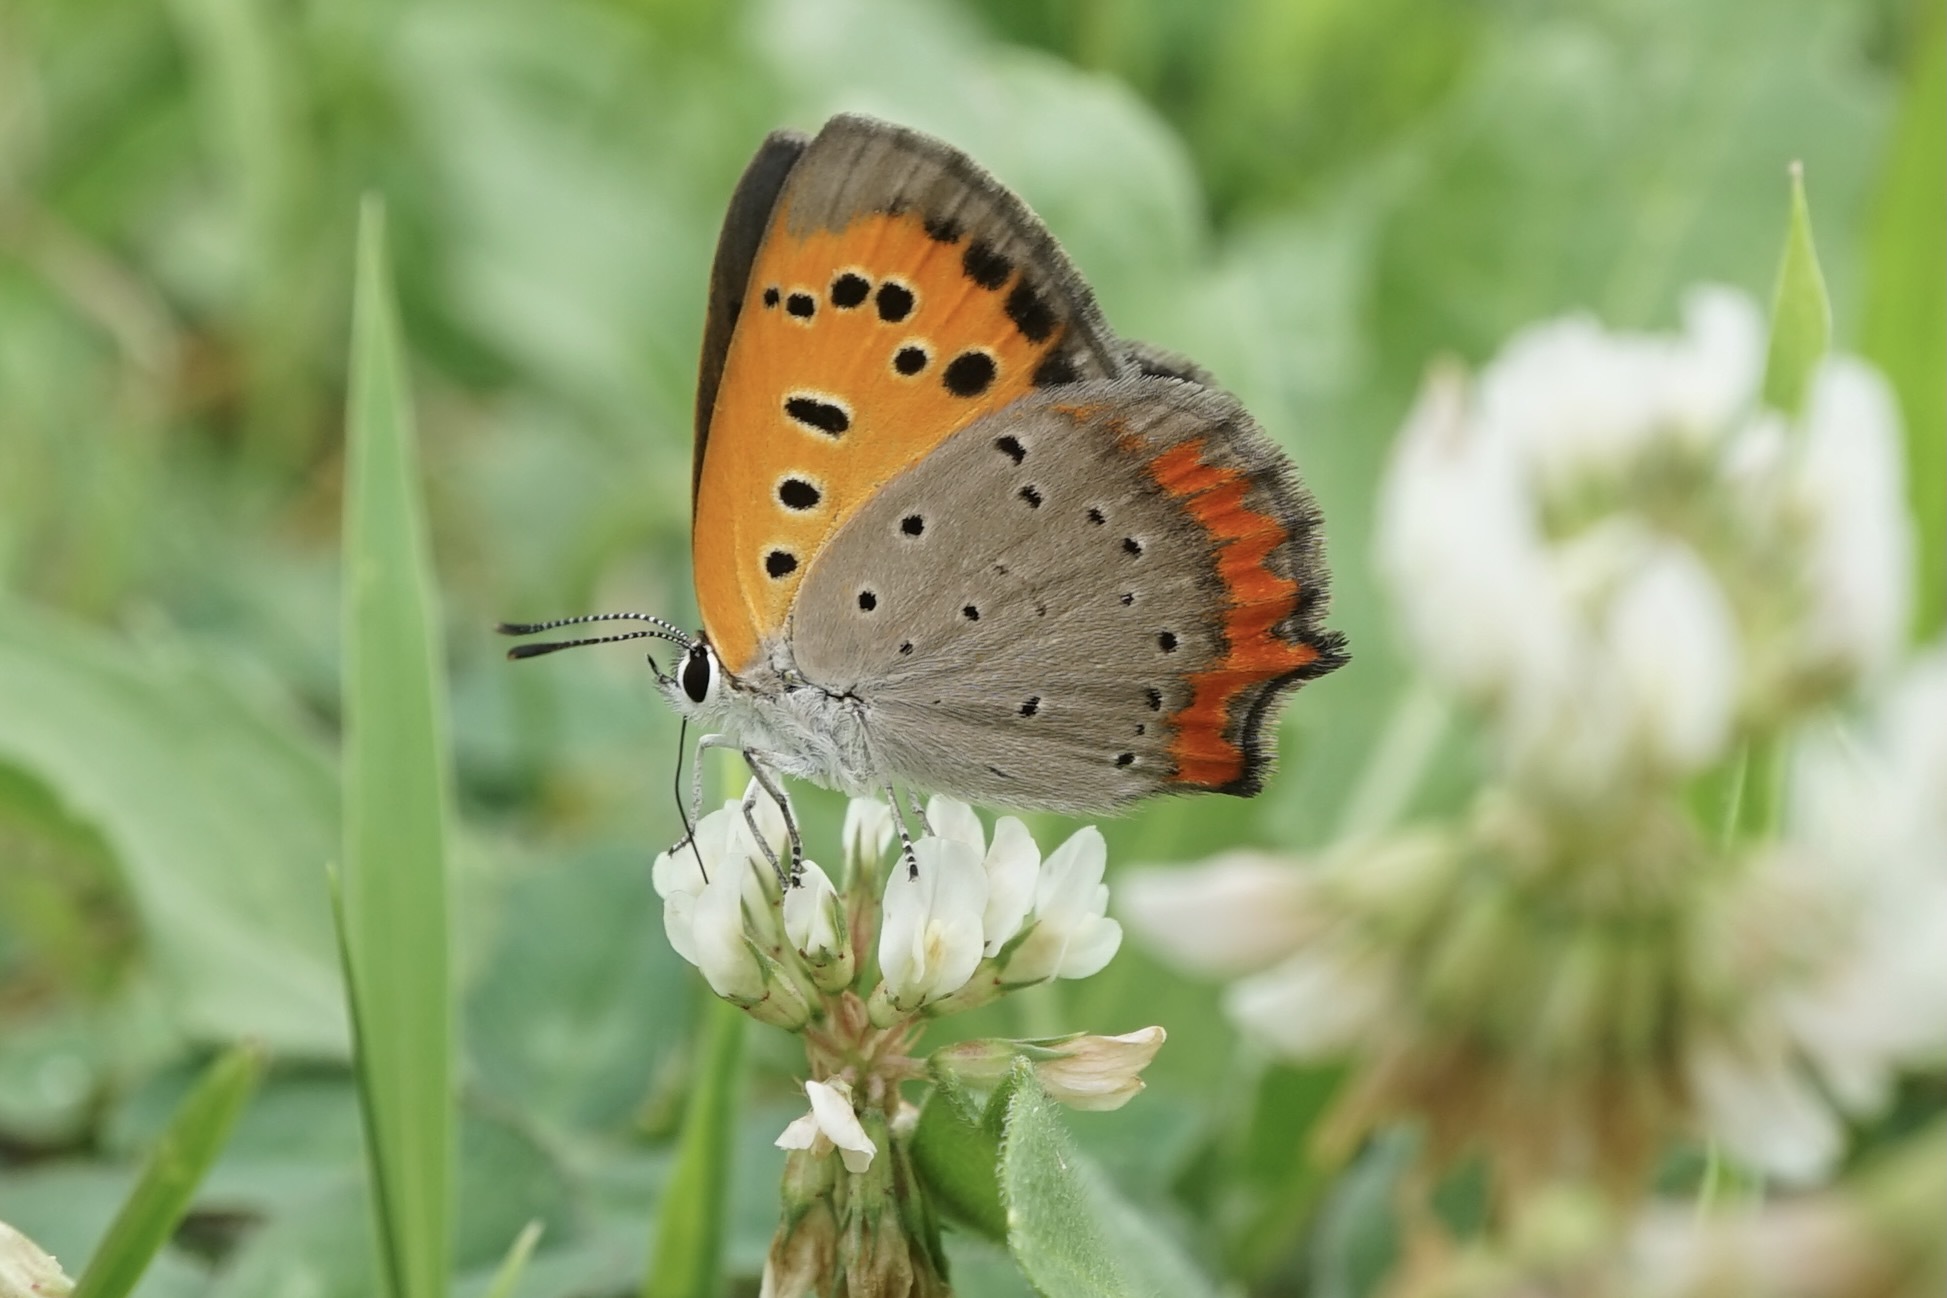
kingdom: Animalia
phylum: Arthropoda
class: Insecta
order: Lepidoptera
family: Lycaenidae
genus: Lycaena
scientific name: Lycaena phlaeas
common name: Small copper
